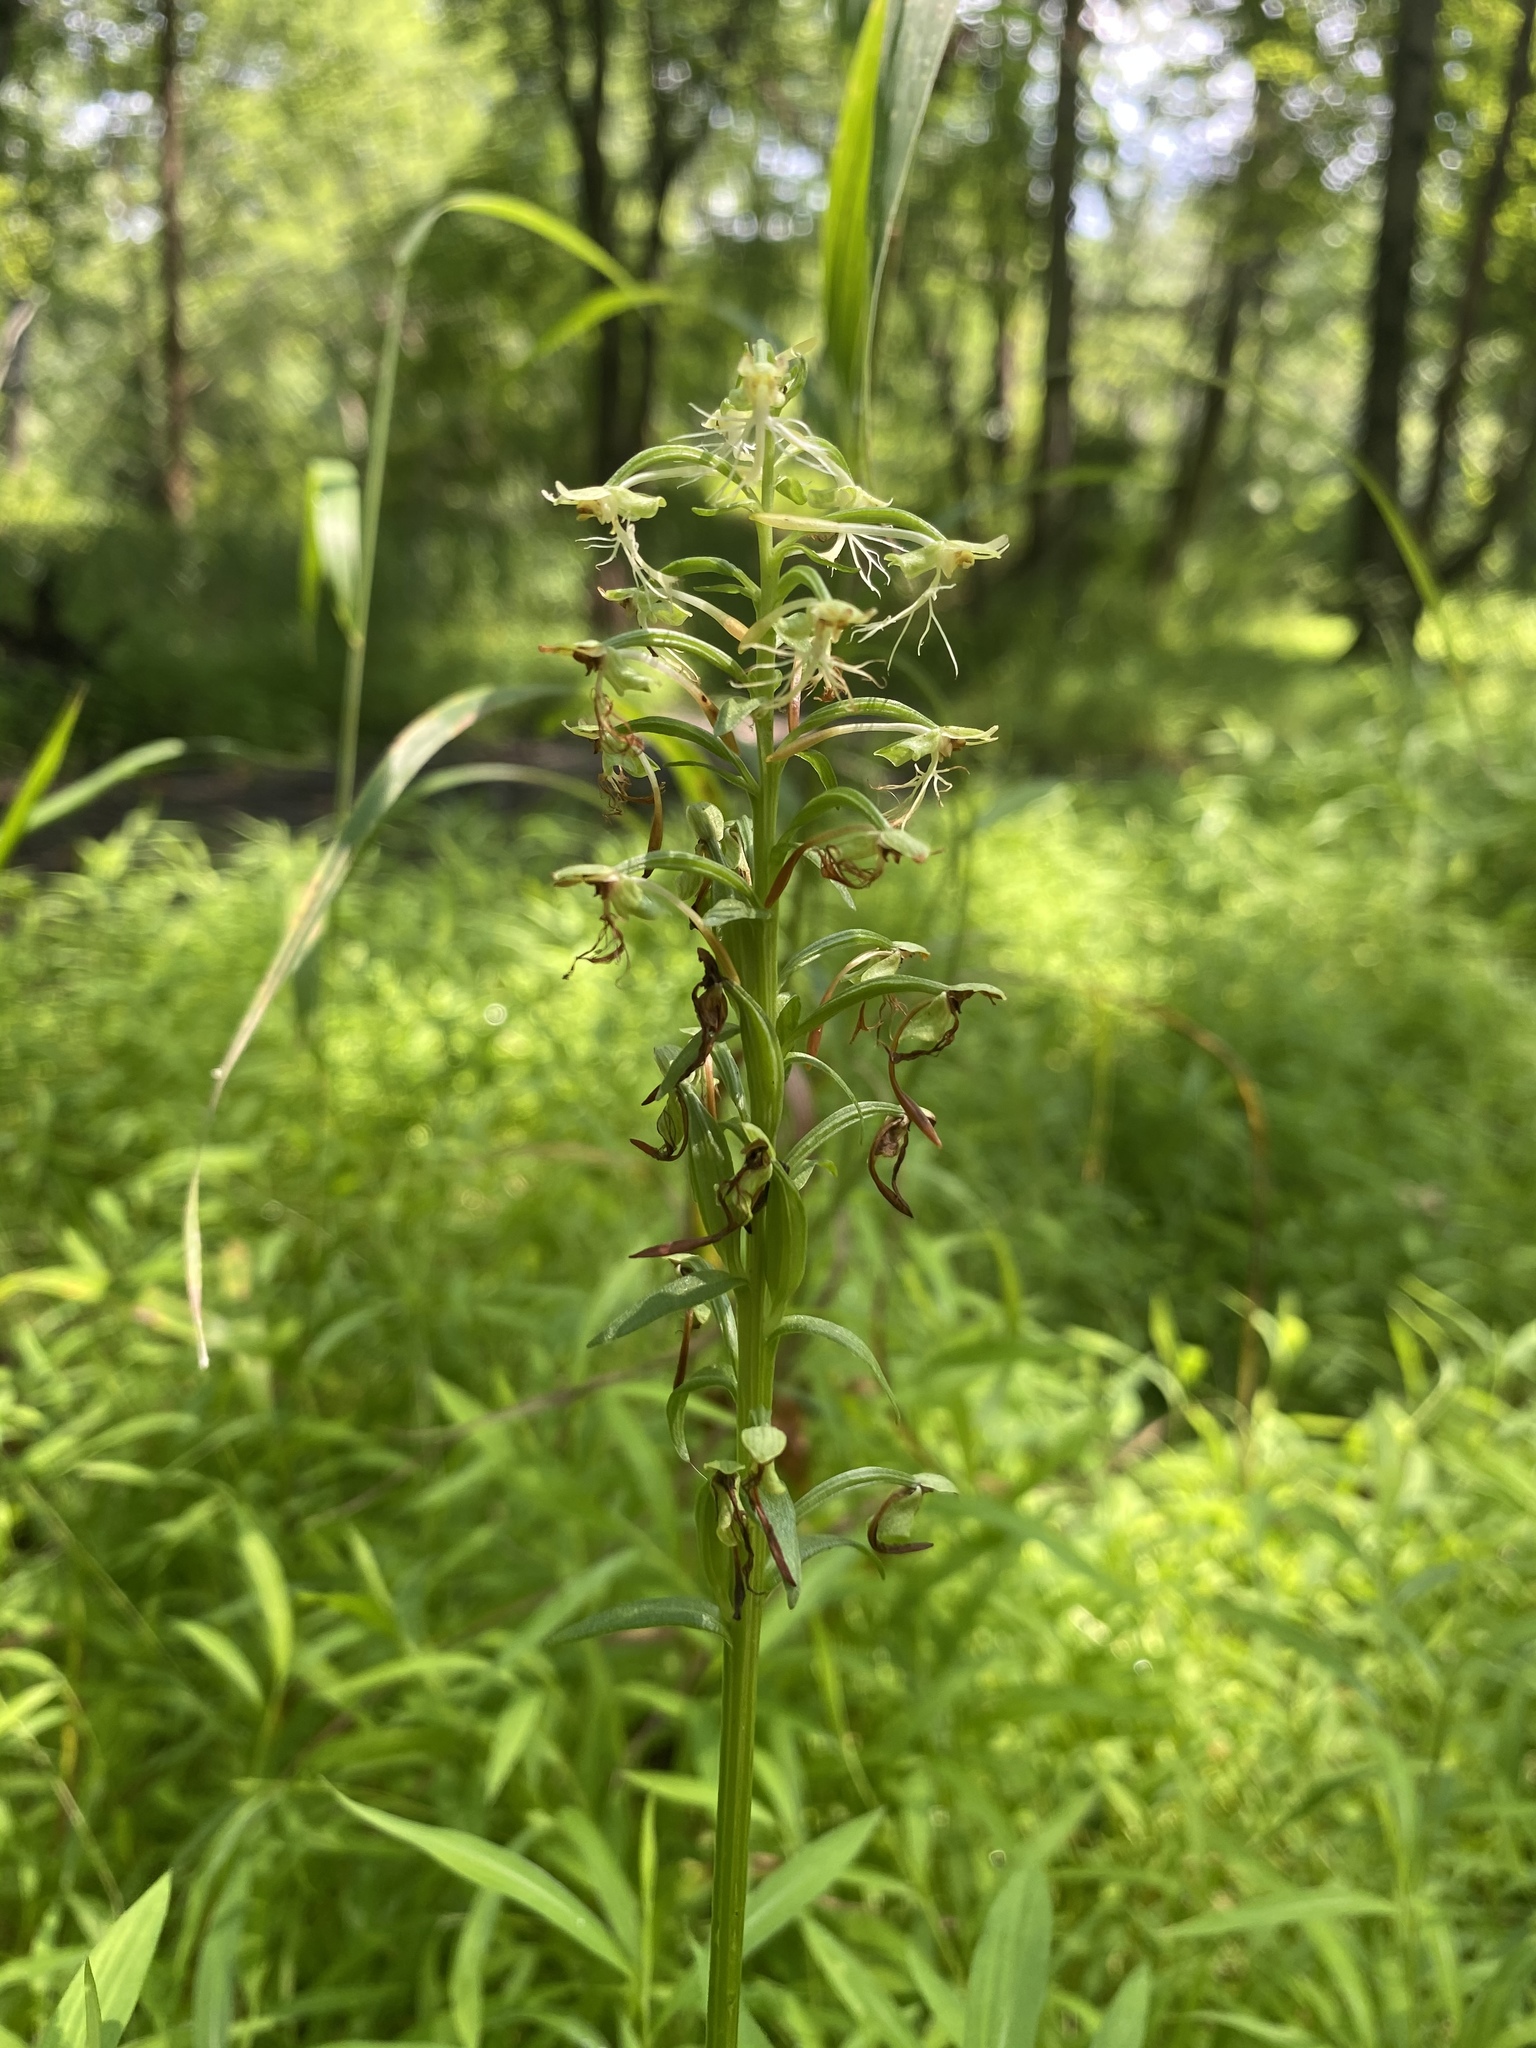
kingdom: Plantae
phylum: Tracheophyta
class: Liliopsida
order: Asparagales
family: Orchidaceae
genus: Platanthera
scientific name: Platanthera lacera
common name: Green fringed orchid
